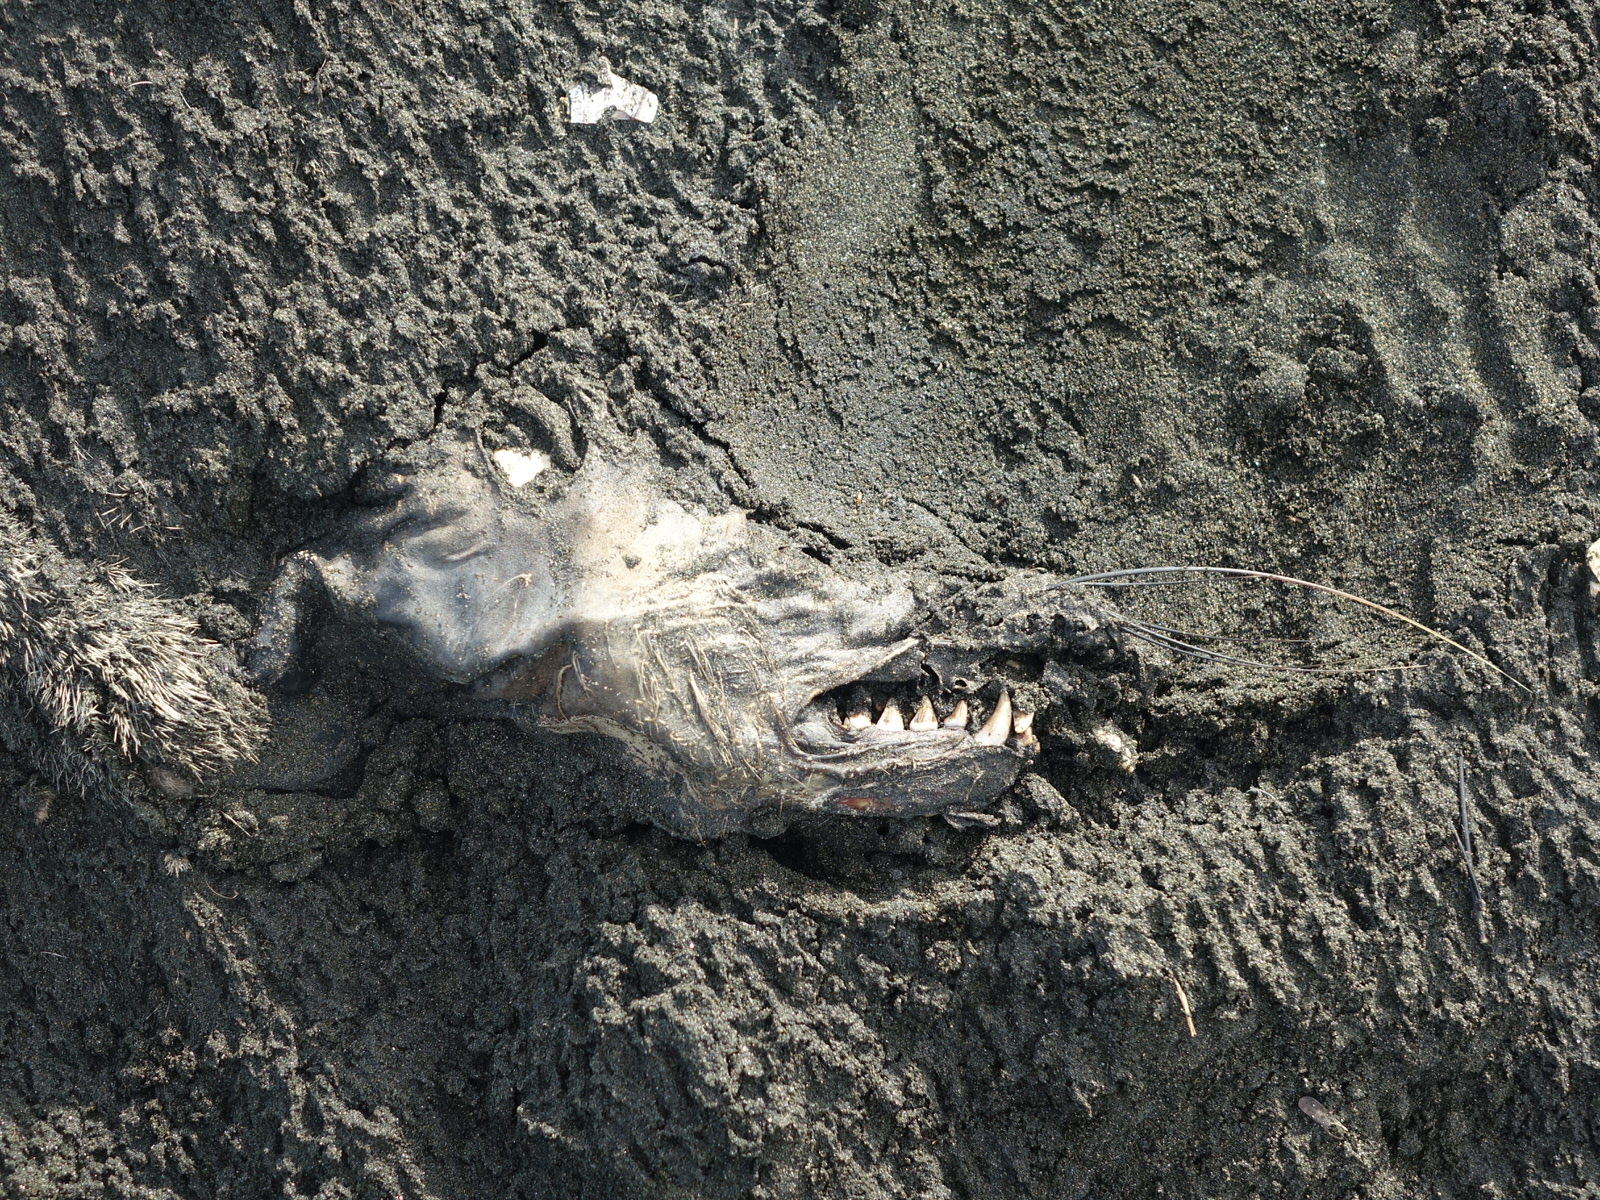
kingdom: Animalia
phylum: Chordata
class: Mammalia
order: Carnivora
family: Otariidae
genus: Arctocephalus
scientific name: Arctocephalus forsteri
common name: New zealand fur seal
